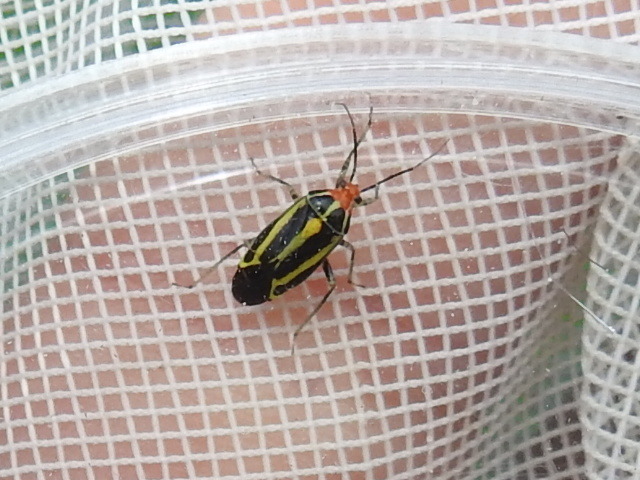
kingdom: Animalia
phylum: Arthropoda
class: Insecta
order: Hemiptera
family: Miridae
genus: Poecilocapsus
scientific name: Poecilocapsus lineatus
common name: Four-lined plant bug
